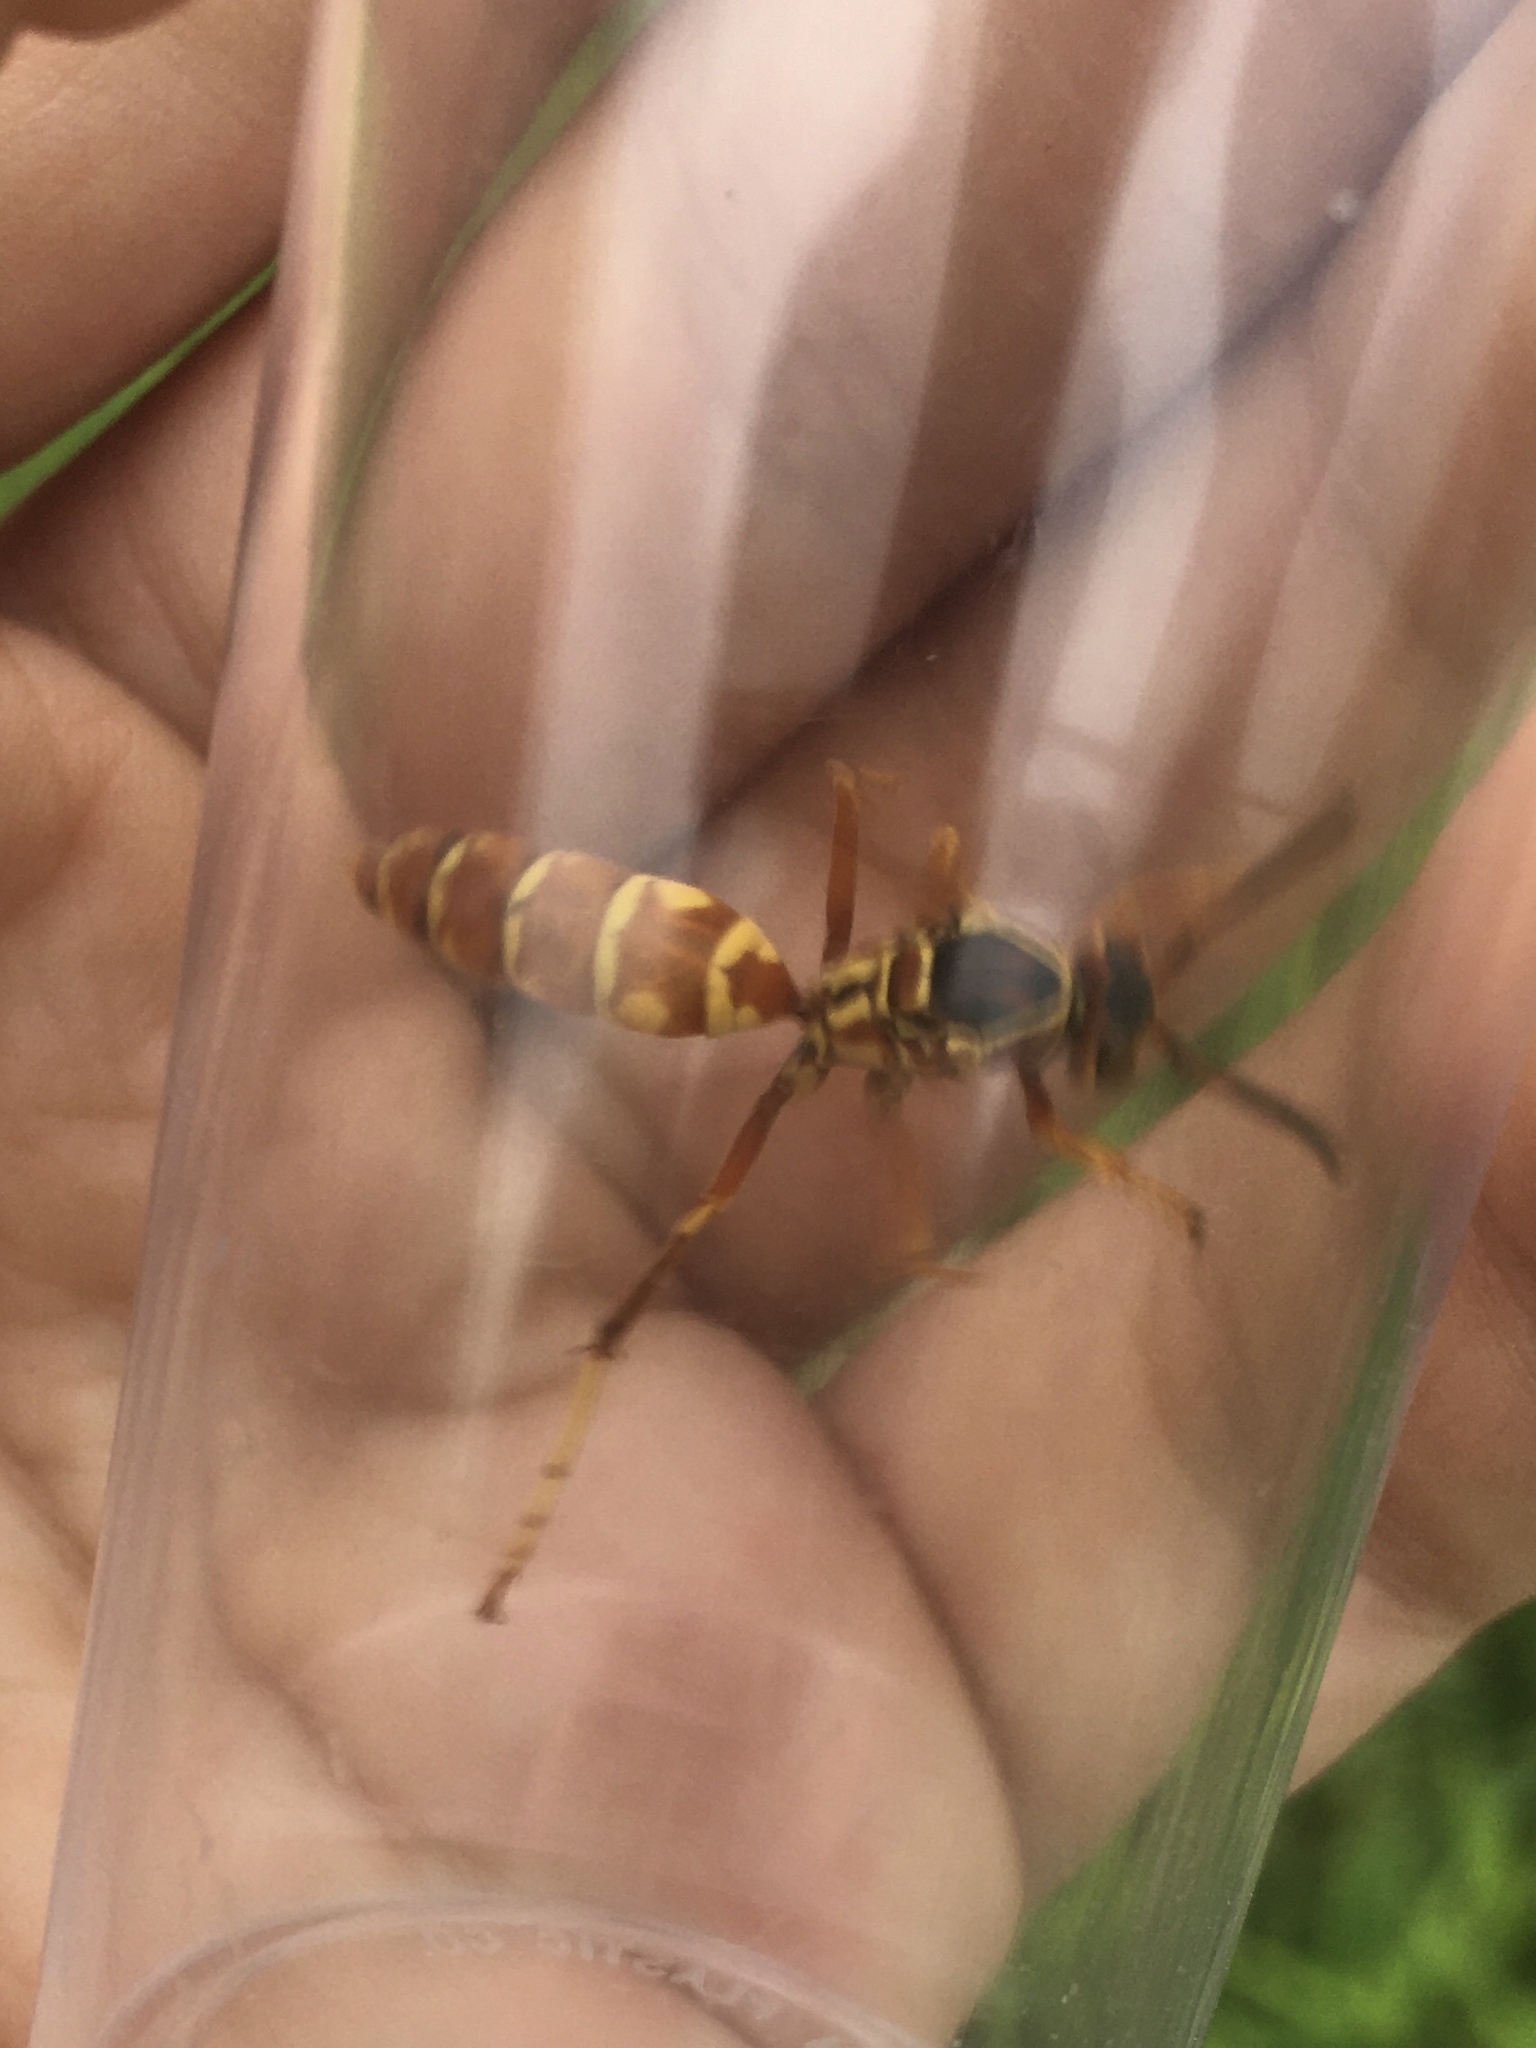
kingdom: Animalia
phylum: Arthropoda
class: Insecta
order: Hymenoptera
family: Eumenidae
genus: Polistes
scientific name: Polistes fuscatus
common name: Dark paper wasp
